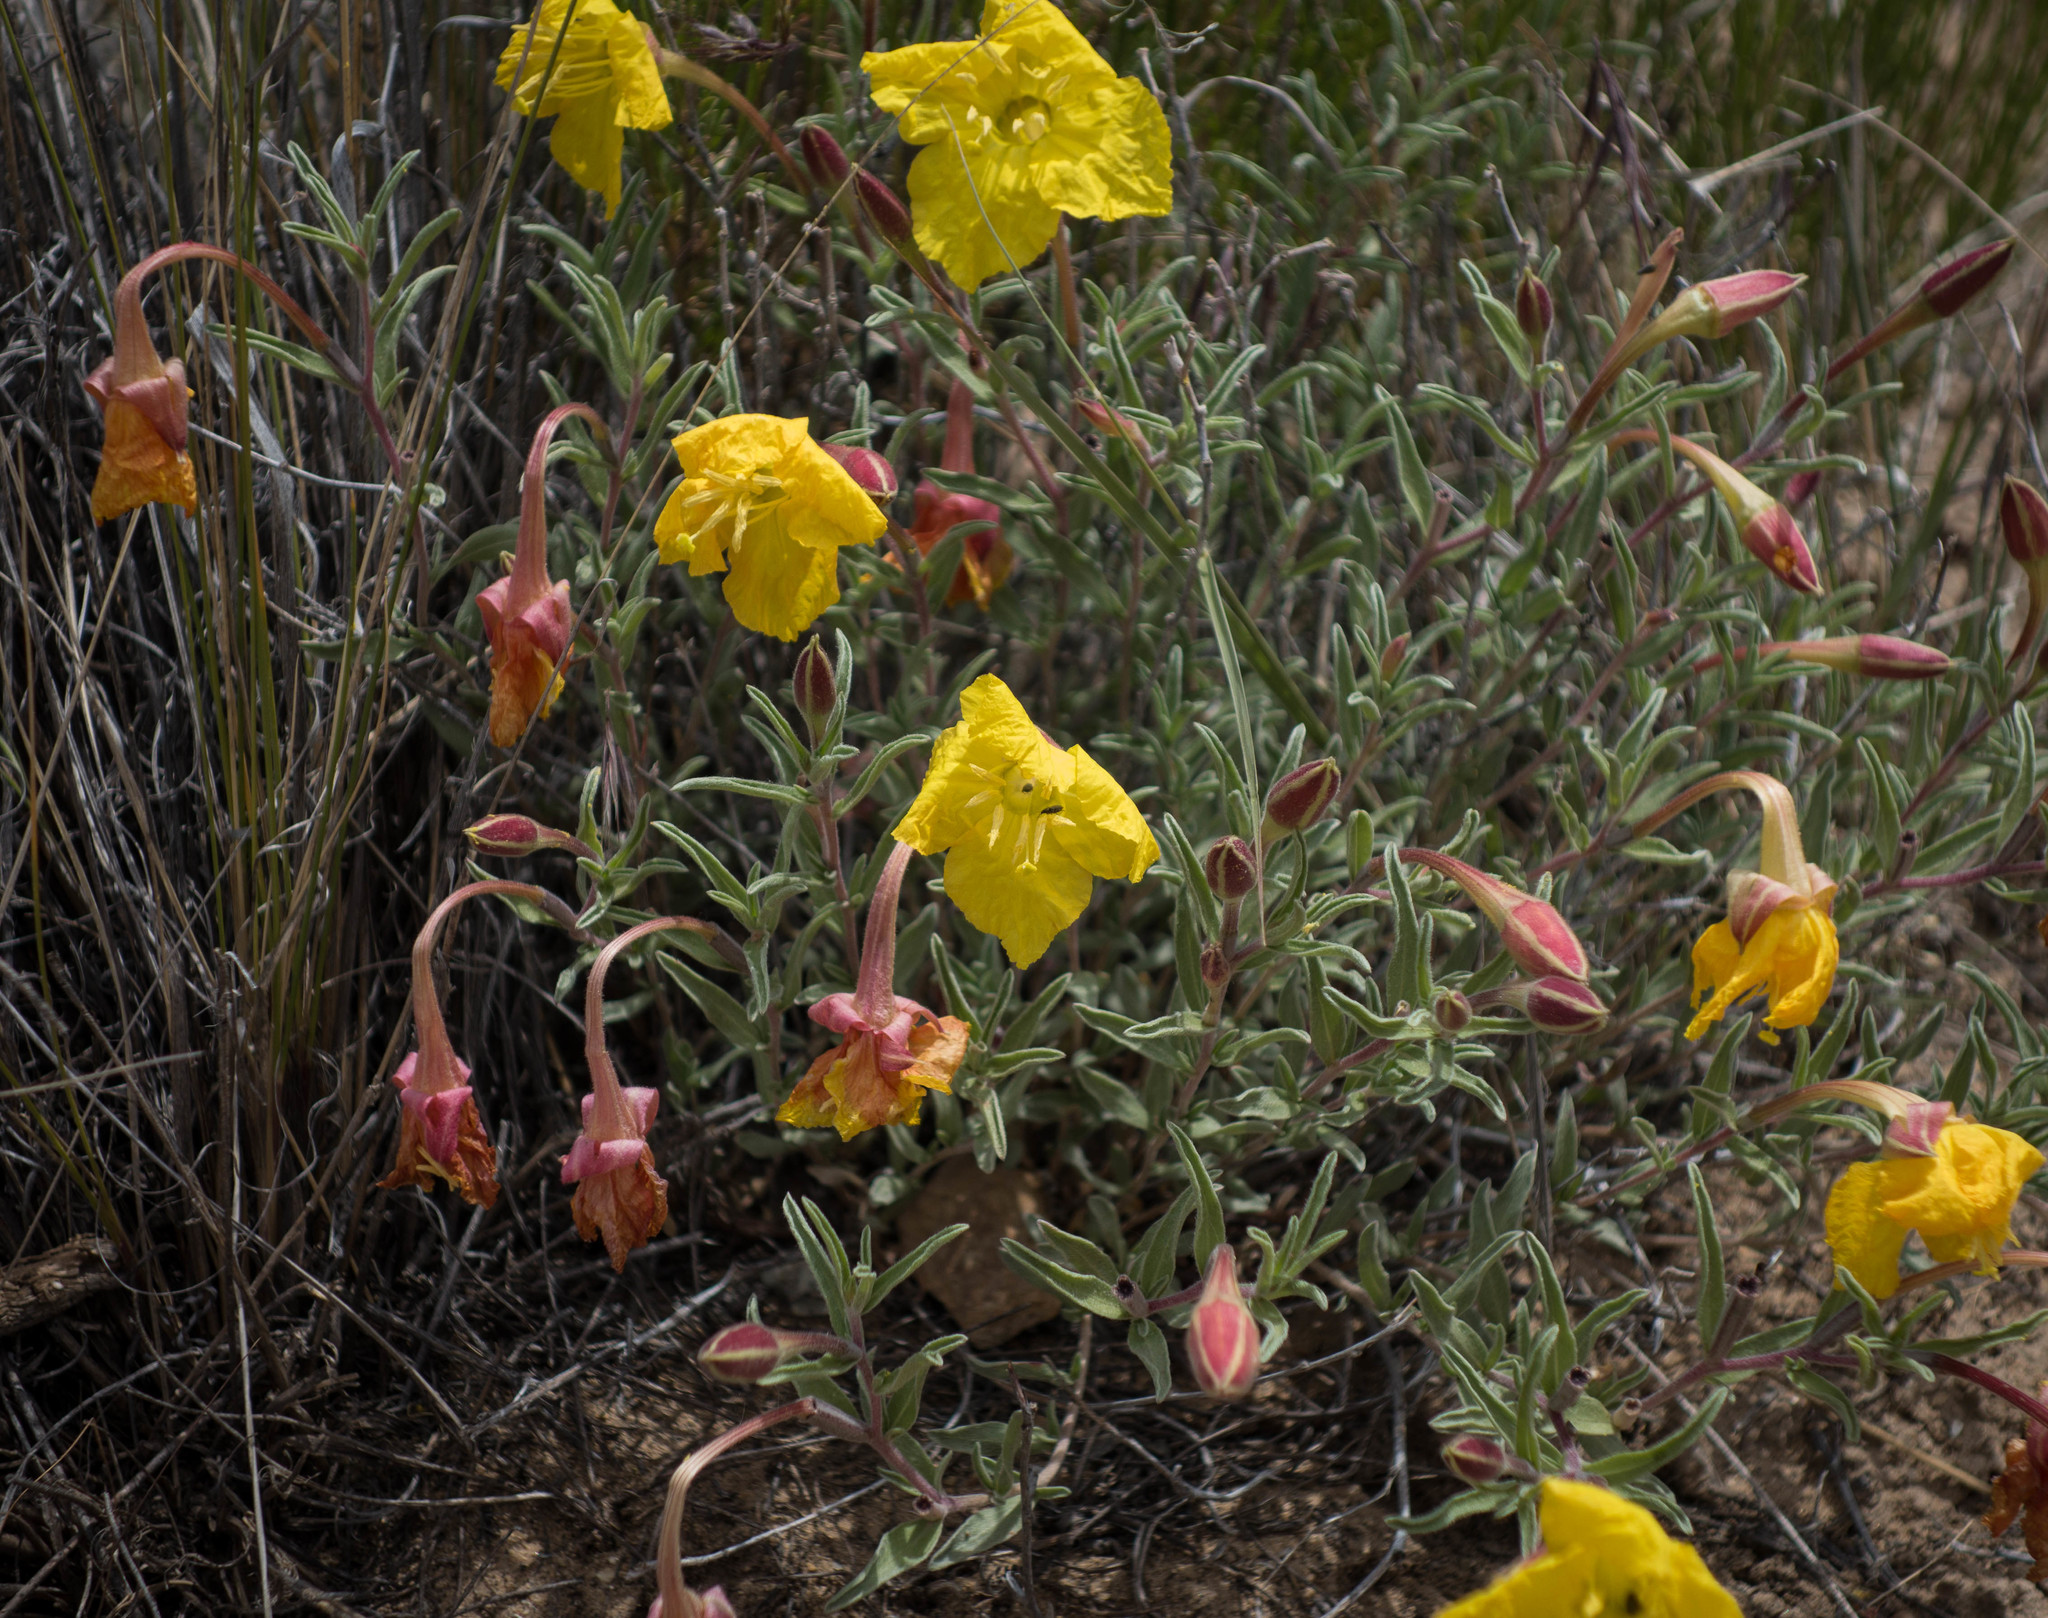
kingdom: Plantae
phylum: Tracheophyta
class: Magnoliopsida
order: Myrtales
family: Onagraceae
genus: Oenothera
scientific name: Oenothera lavandulifolia
